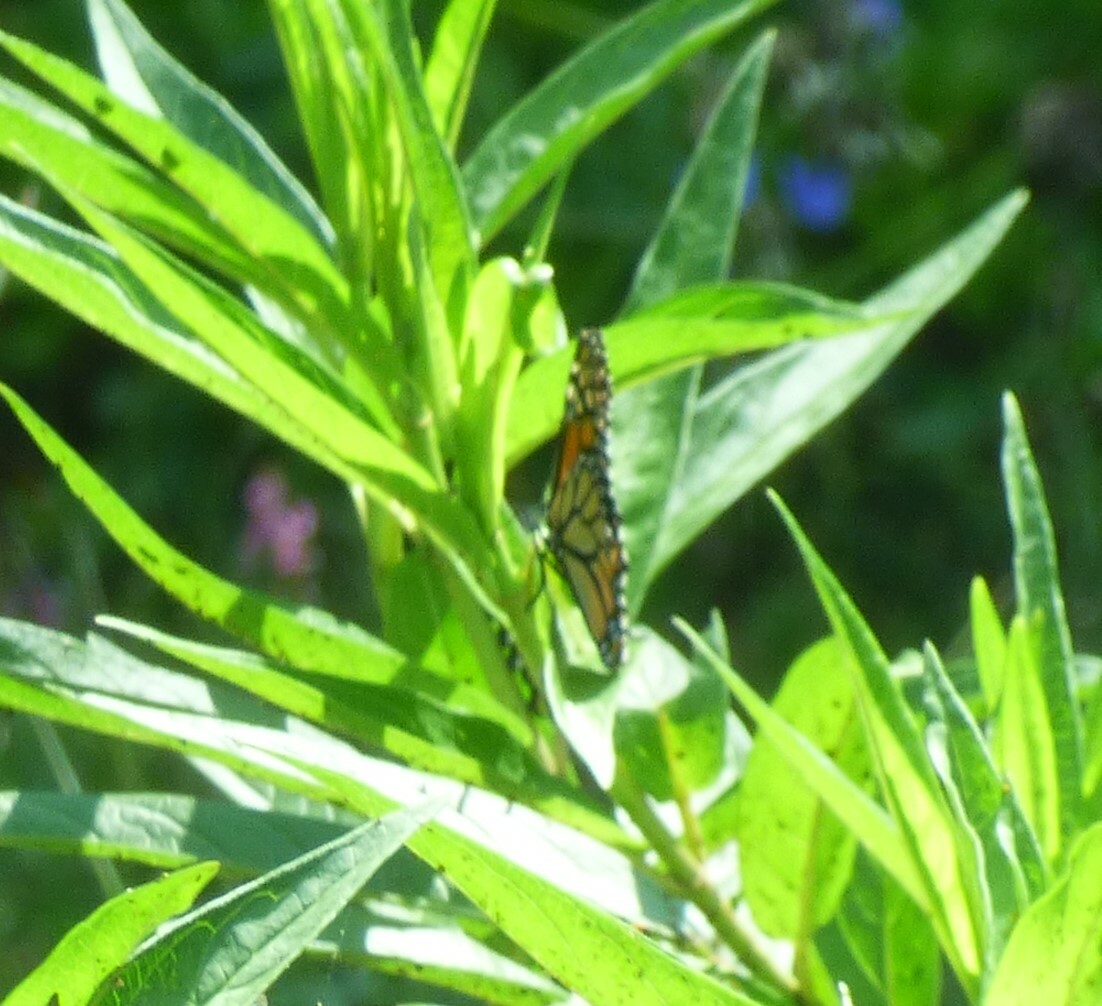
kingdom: Animalia
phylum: Arthropoda
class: Insecta
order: Lepidoptera
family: Nymphalidae
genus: Danaus
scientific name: Danaus plexippus
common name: Monarch
